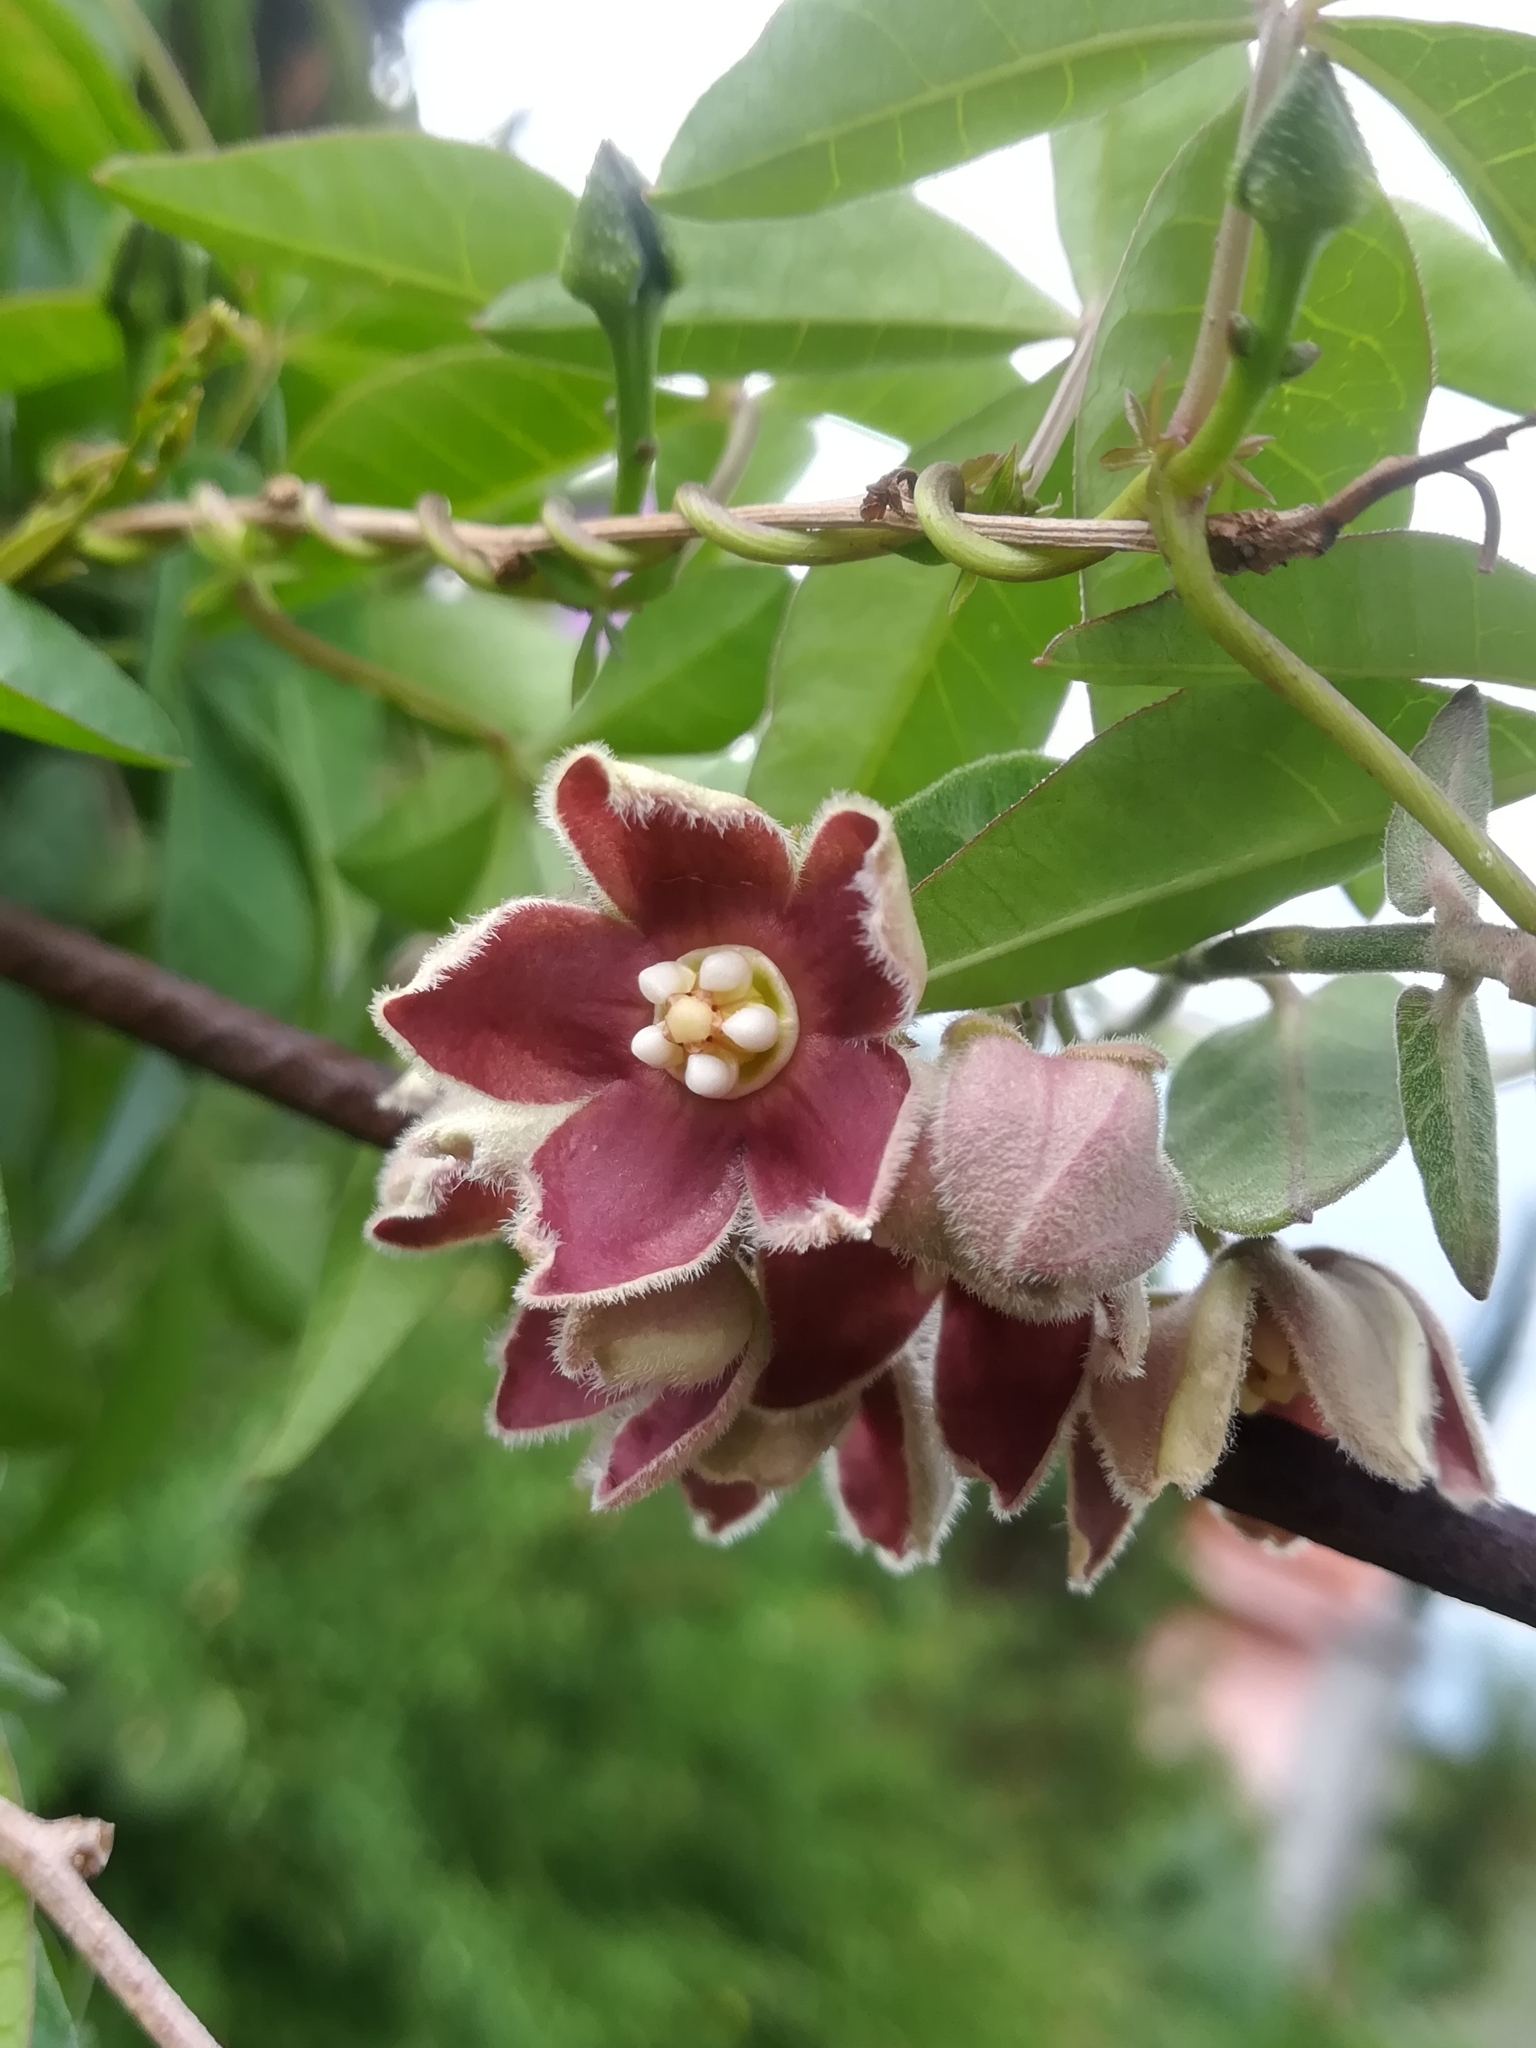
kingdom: Plantae
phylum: Tracheophyta
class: Magnoliopsida
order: Gentianales
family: Apocynaceae
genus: Funastrum
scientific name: Funastrum elegans
